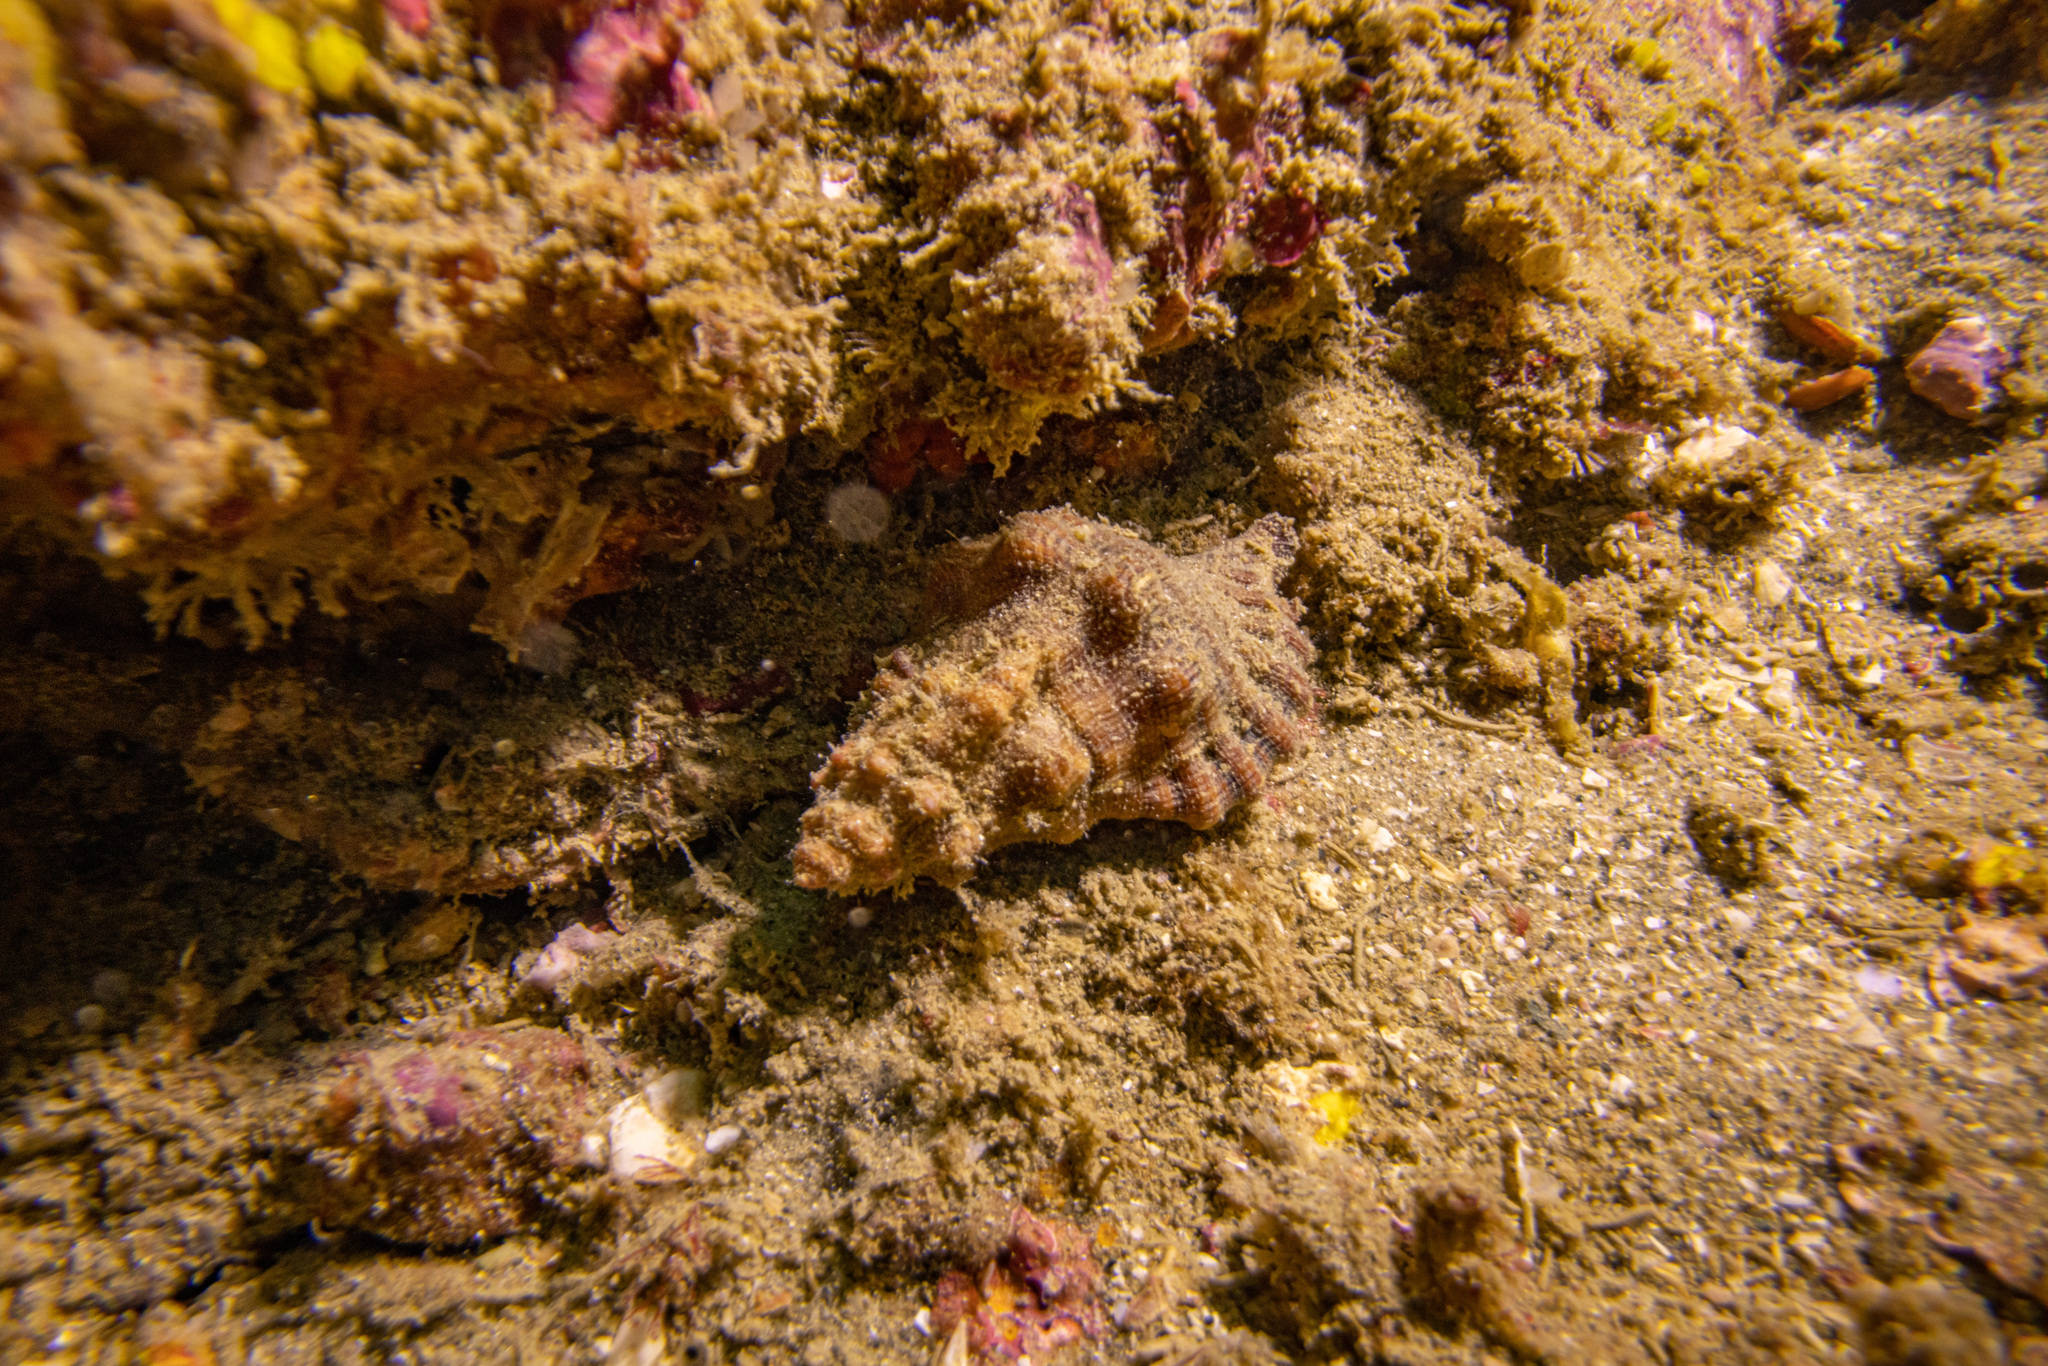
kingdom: Animalia
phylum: Mollusca
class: Gastropoda
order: Littorinimorpha
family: Cymatiidae
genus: Cabestana
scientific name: Cabestana spengleri
